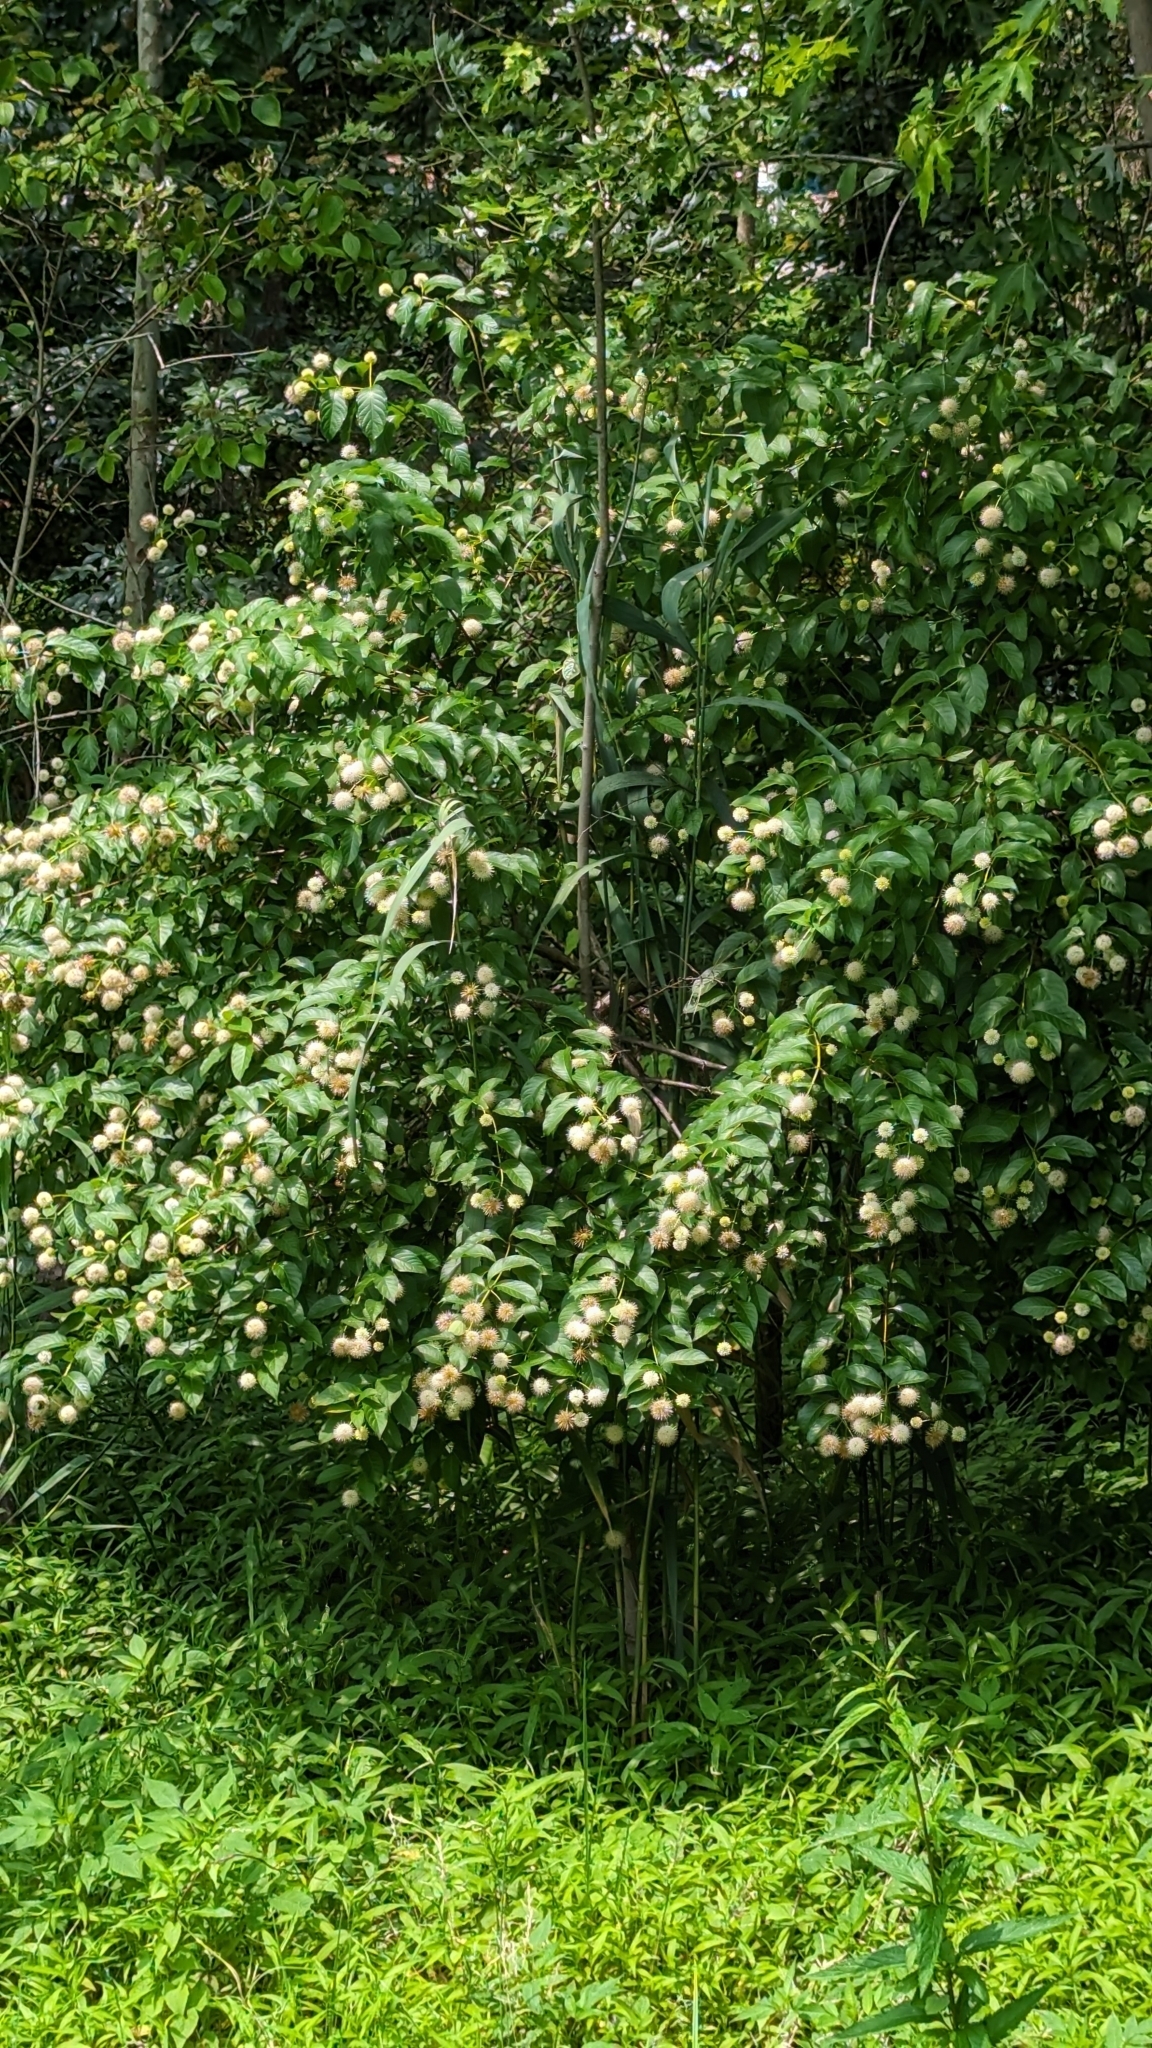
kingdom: Plantae
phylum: Tracheophyta
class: Magnoliopsida
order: Gentianales
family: Rubiaceae
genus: Cephalanthus
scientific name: Cephalanthus occidentalis
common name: Button-willow
